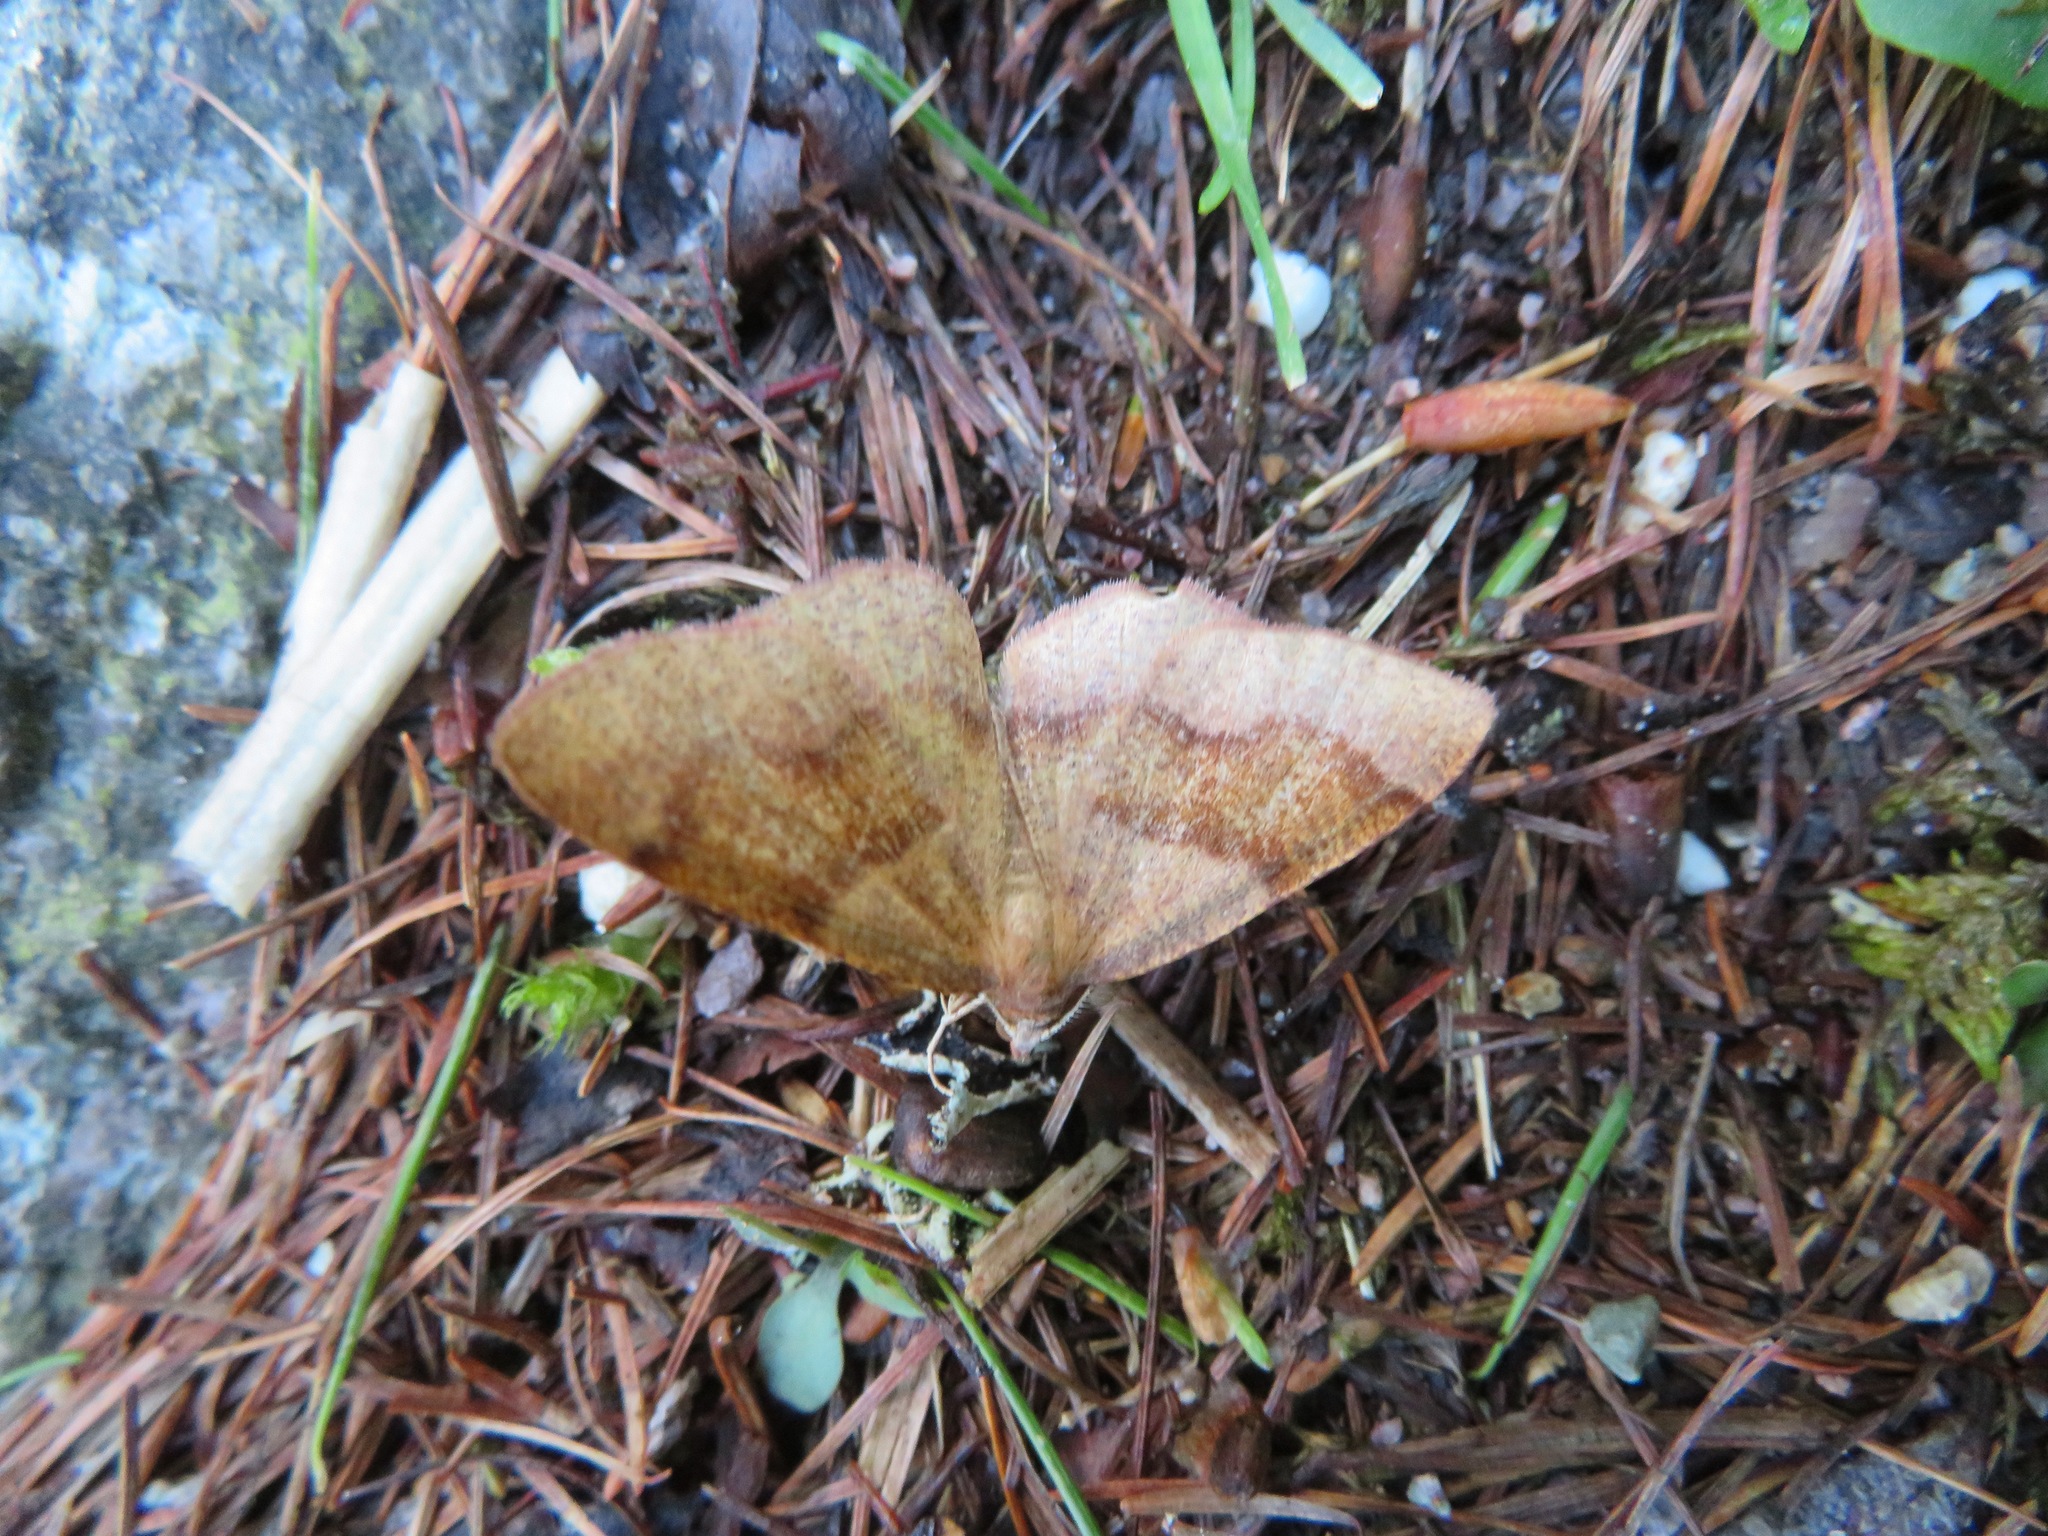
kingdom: Animalia
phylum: Arthropoda
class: Insecta
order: Lepidoptera
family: Geometridae
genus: Plagodis
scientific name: Plagodis pulveraria
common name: Barred umber
